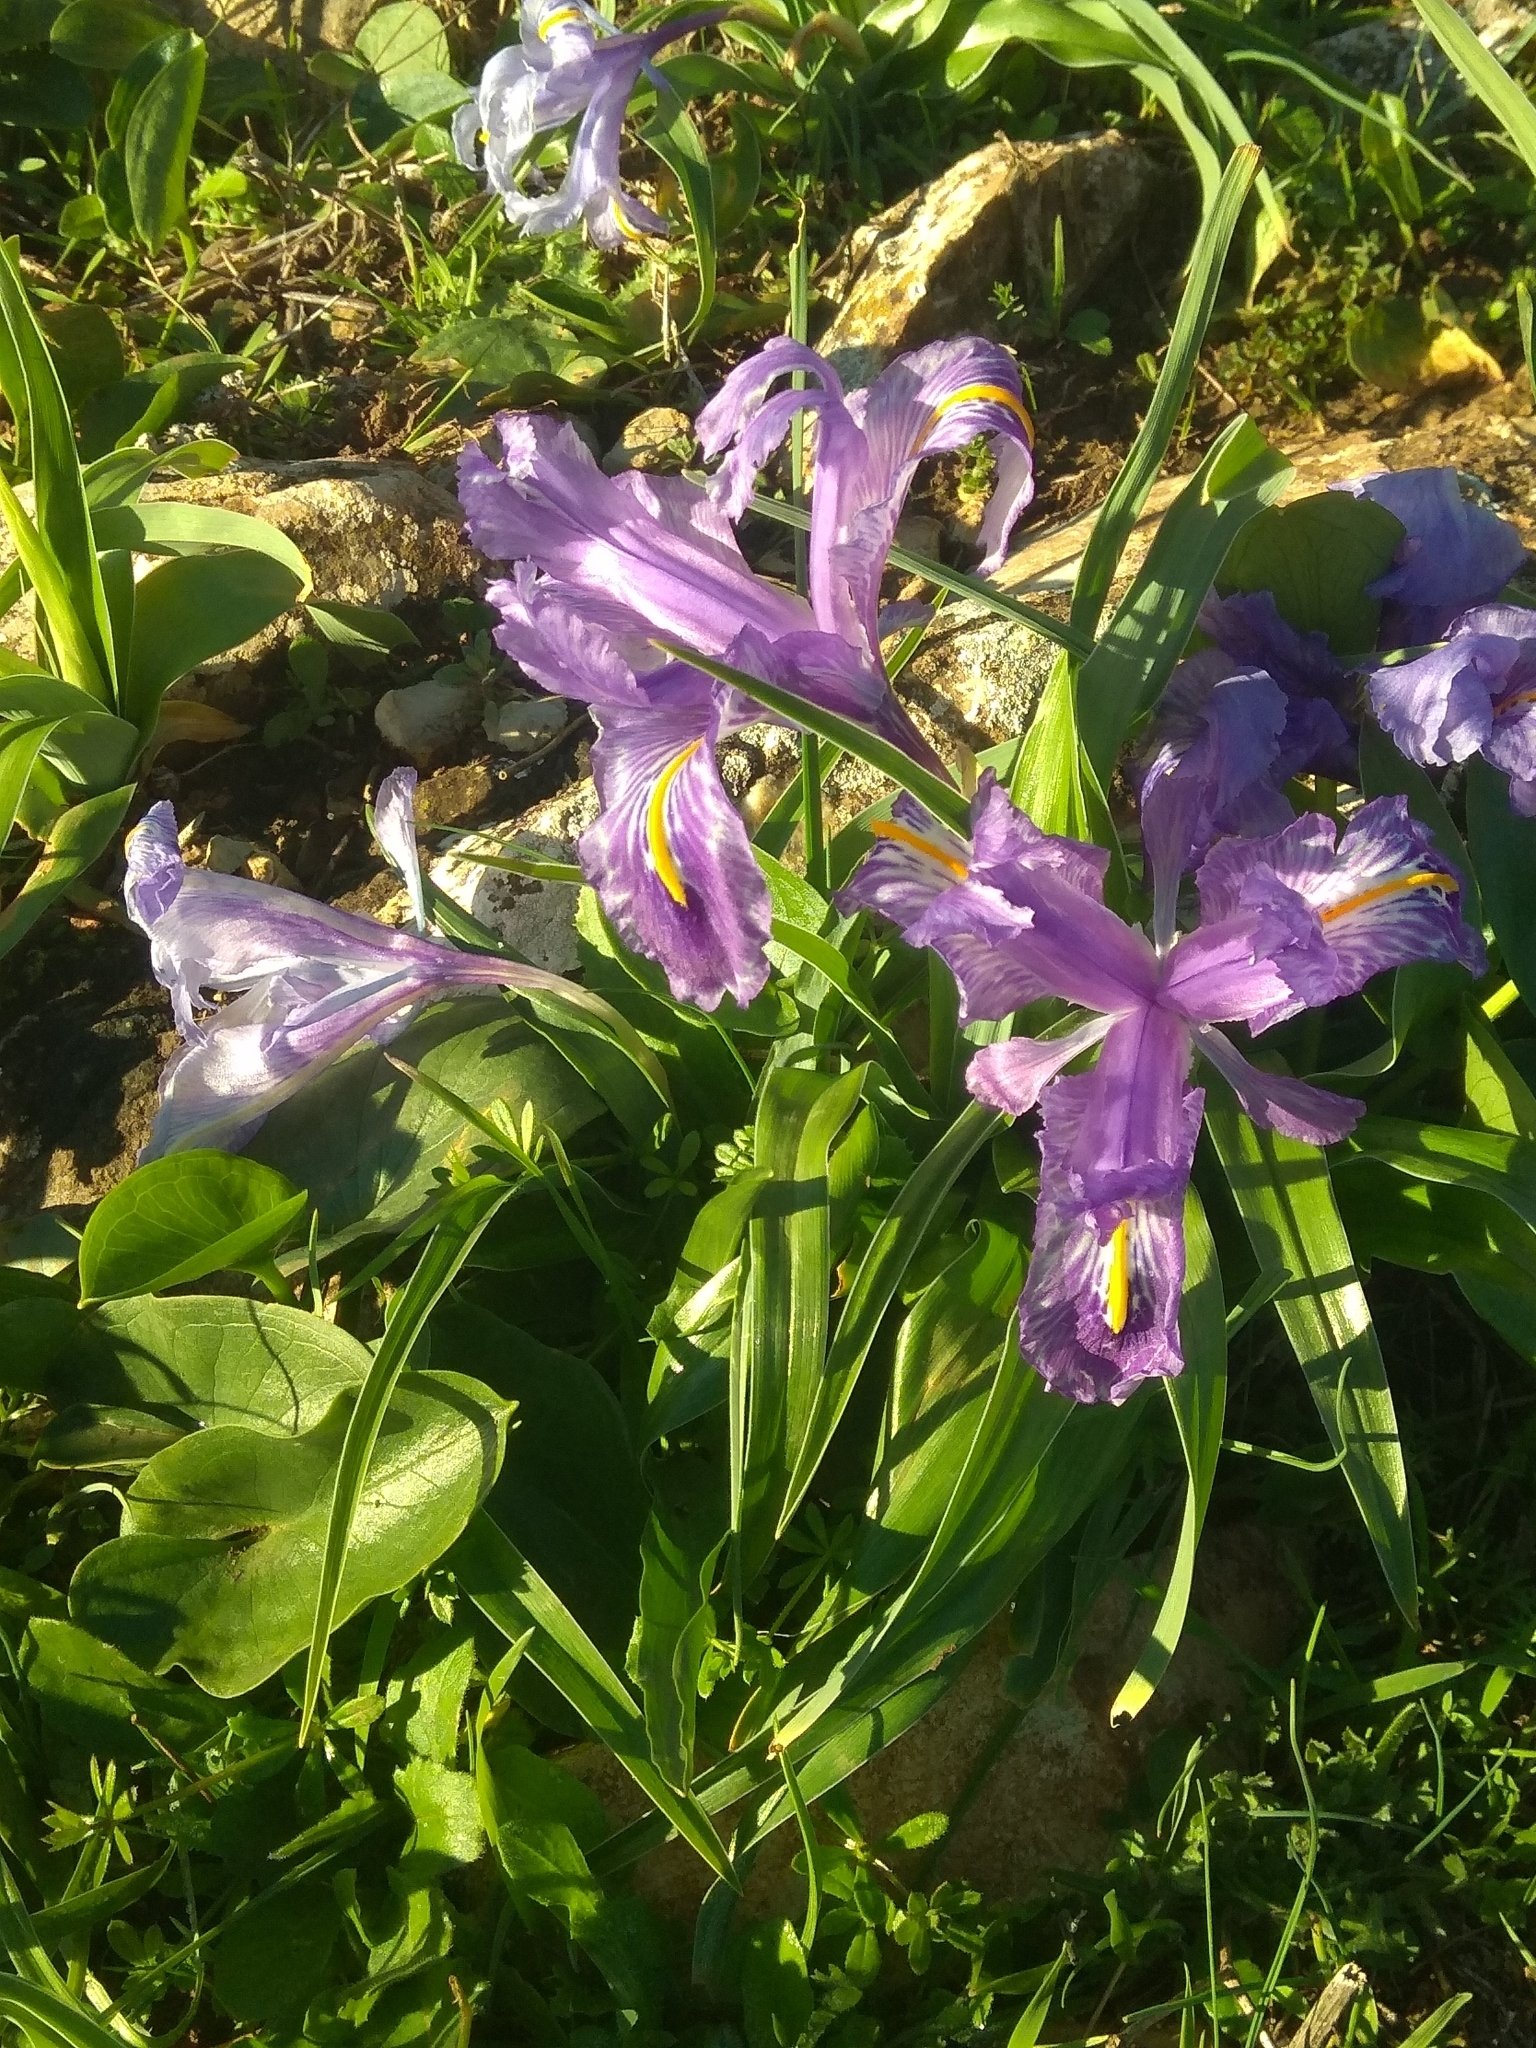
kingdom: Plantae
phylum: Tracheophyta
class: Liliopsida
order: Asparagales
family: Iridaceae
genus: Iris
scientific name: Iris planifolia
